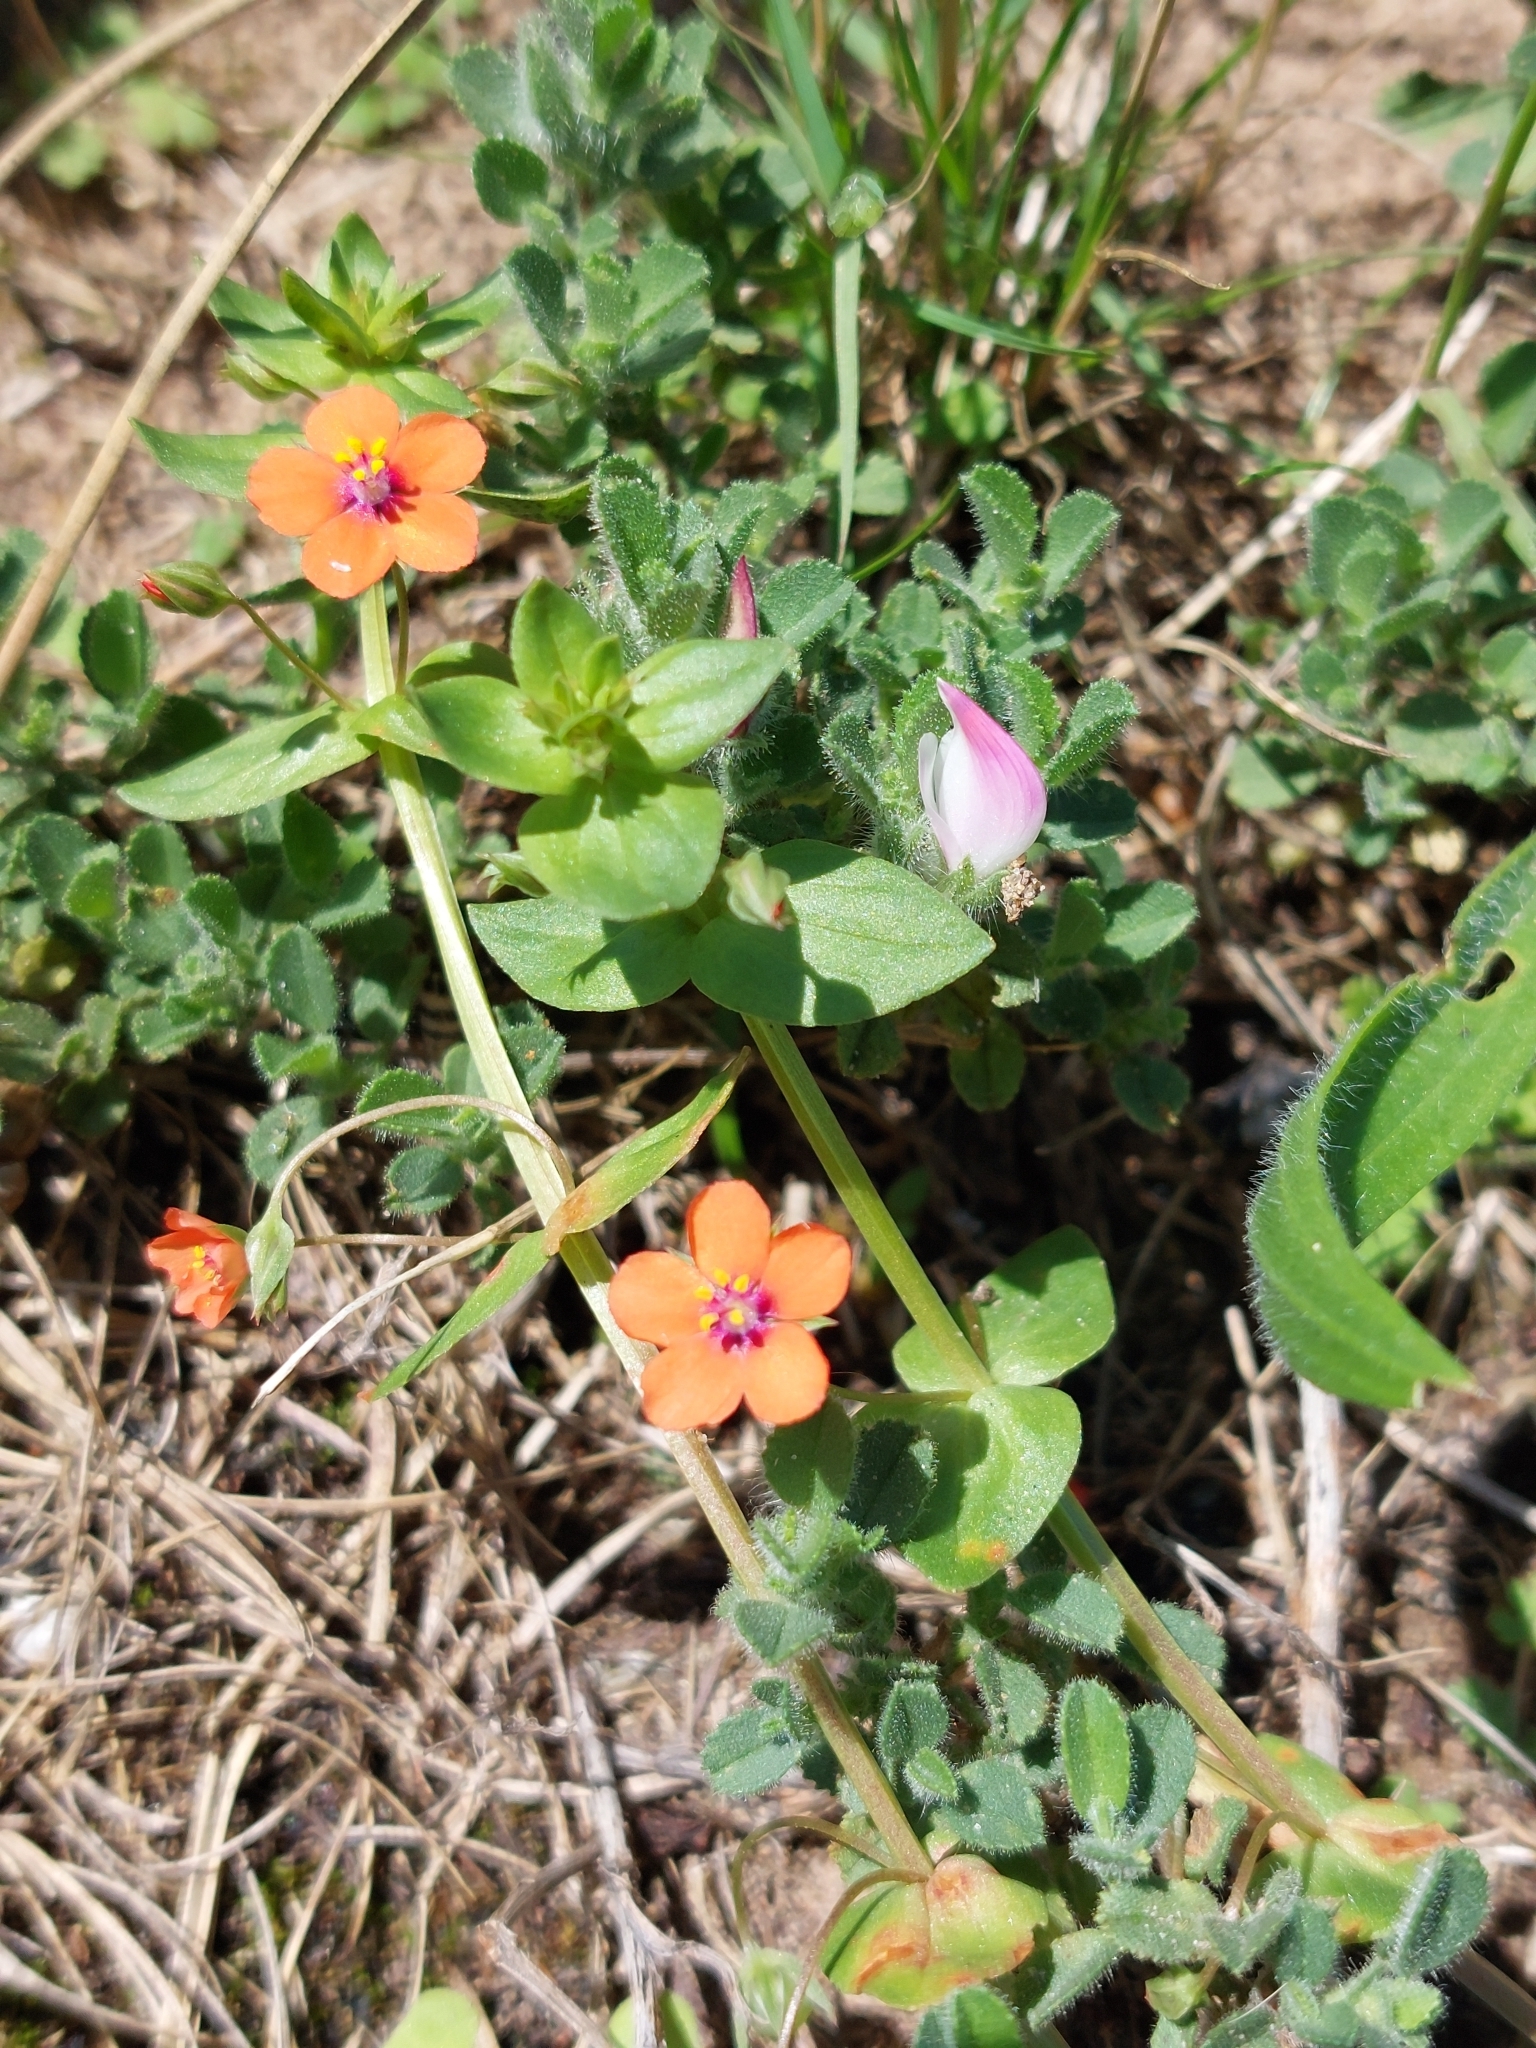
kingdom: Plantae
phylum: Tracheophyta
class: Magnoliopsida
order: Ericales
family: Primulaceae
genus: Lysimachia
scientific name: Lysimachia arvensis
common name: Scarlet pimpernel
